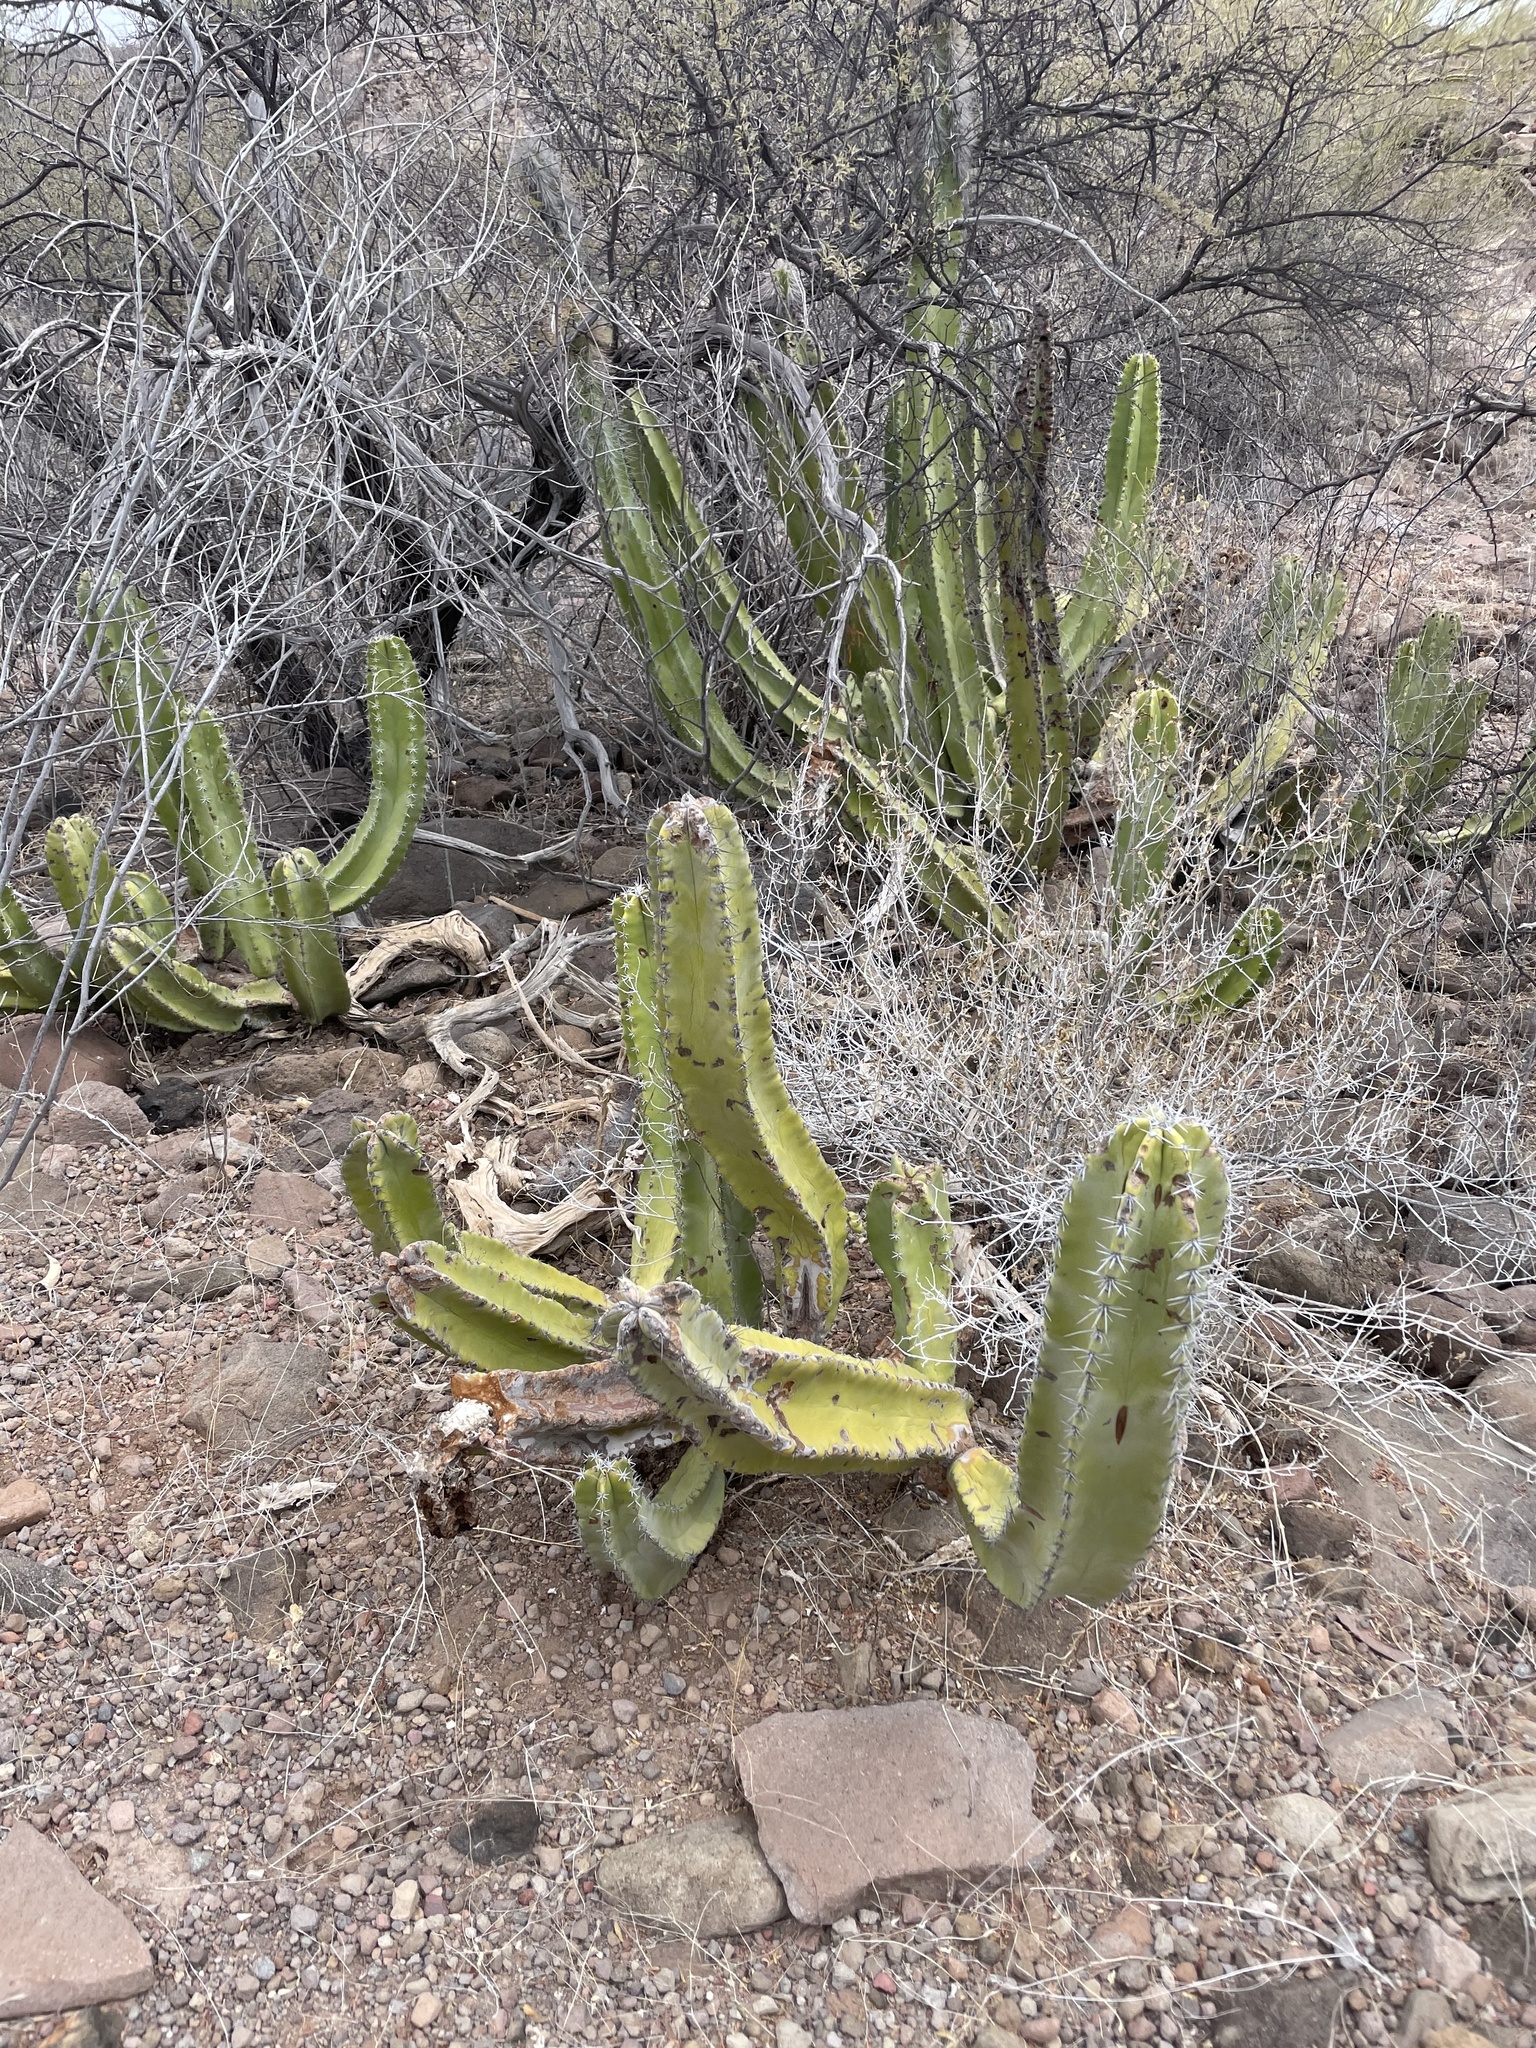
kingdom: Plantae
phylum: Tracheophyta
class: Magnoliopsida
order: Caryophyllales
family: Cactaceae
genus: Pachycereus
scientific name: Pachycereus schottii
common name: Senita cactus
